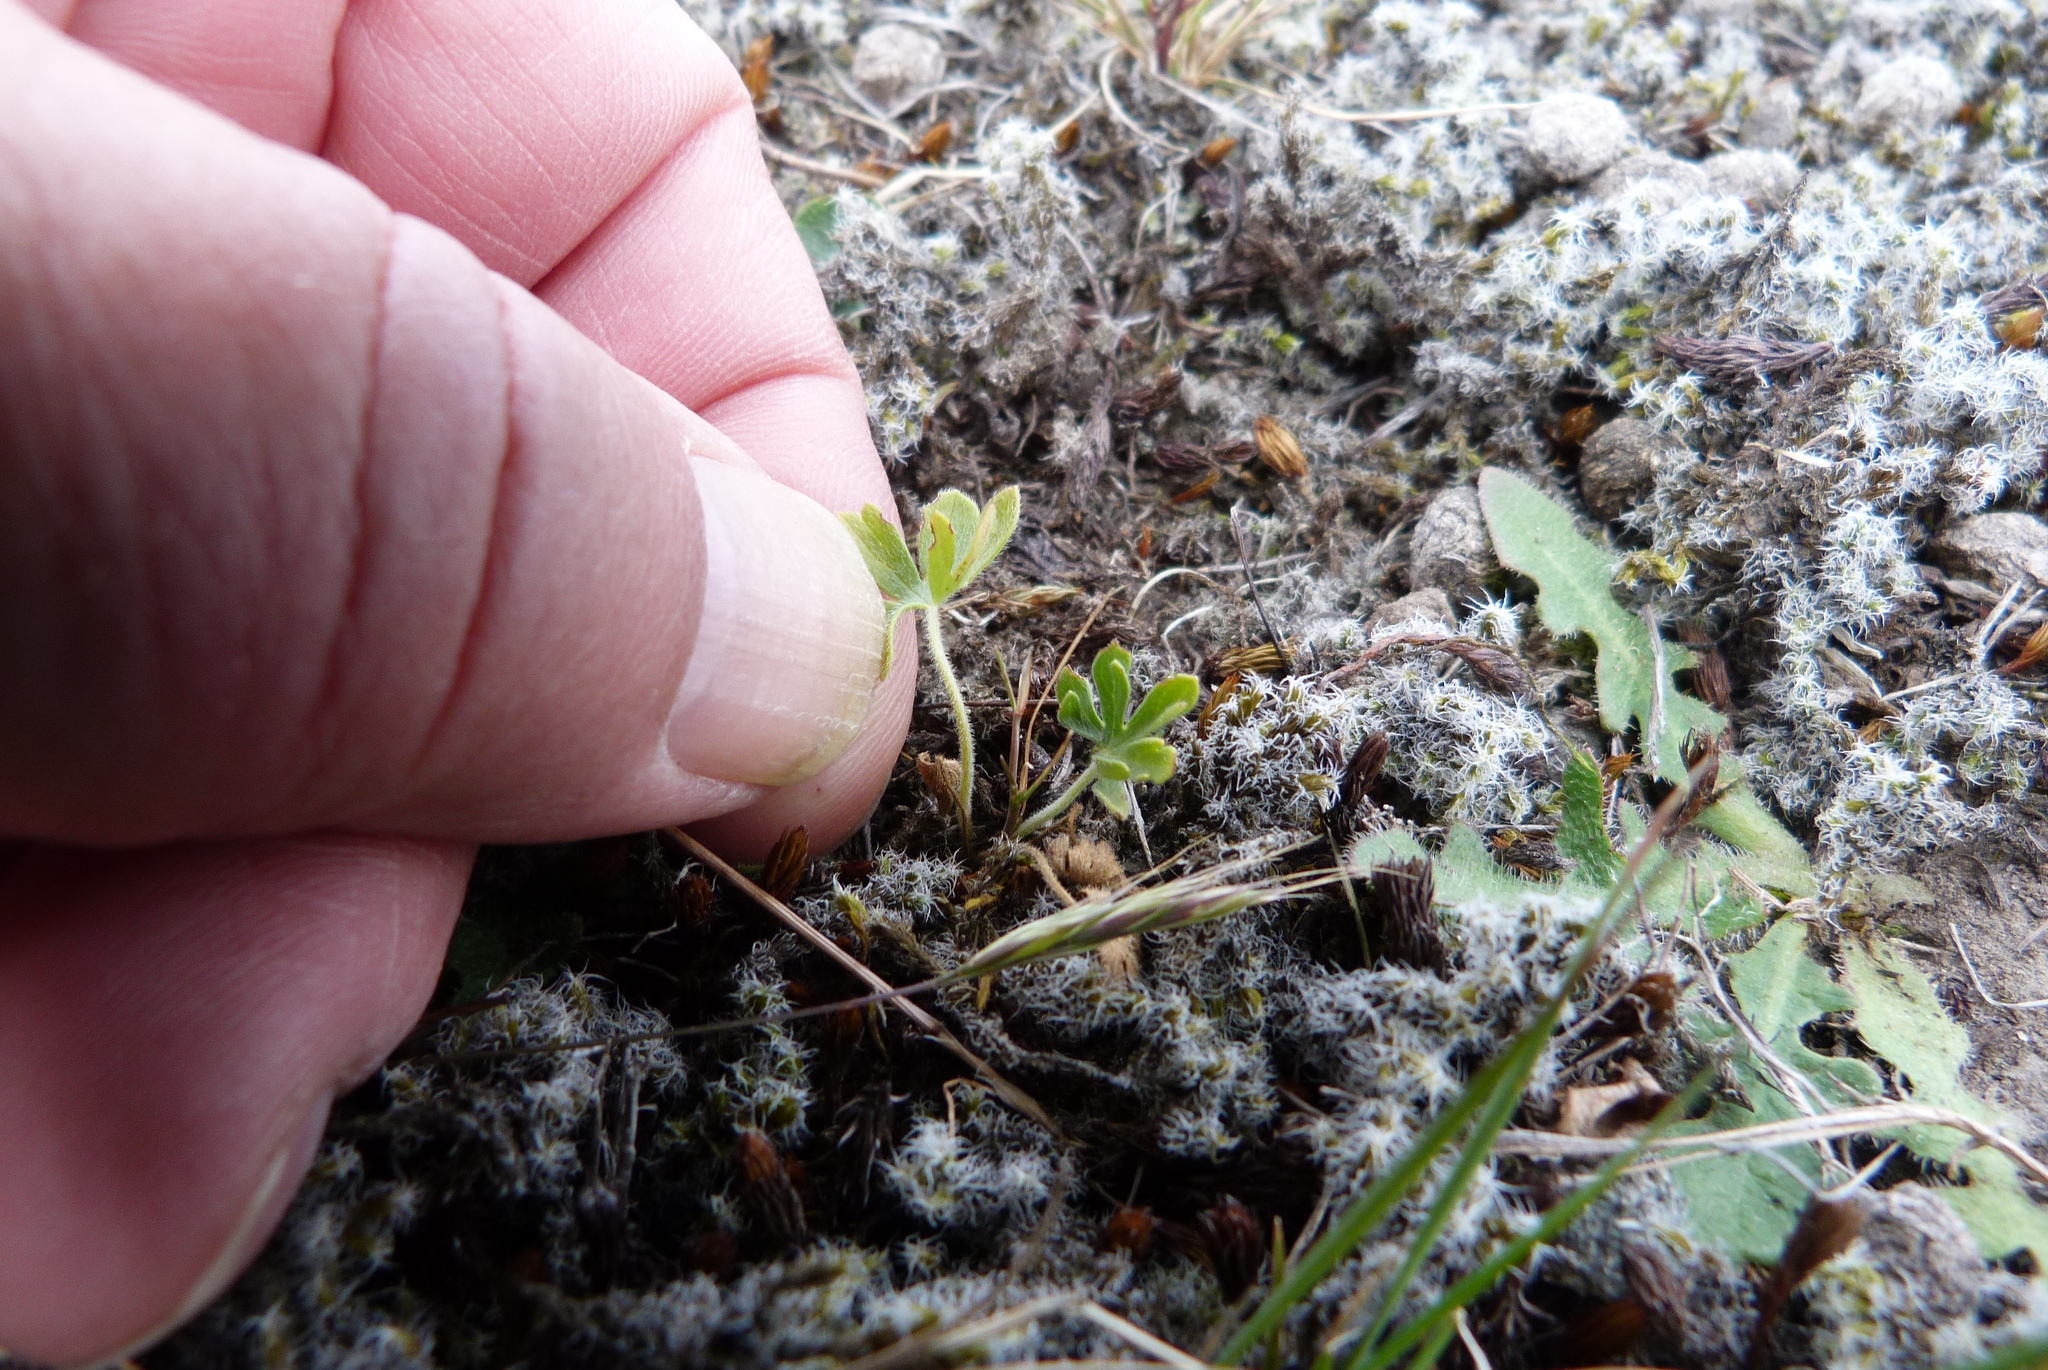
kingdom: Plantae
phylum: Tracheophyta
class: Magnoliopsida
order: Geraniales
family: Geraniaceae
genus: Geranium
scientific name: Geranium retrorsum
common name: New zealand geranium
